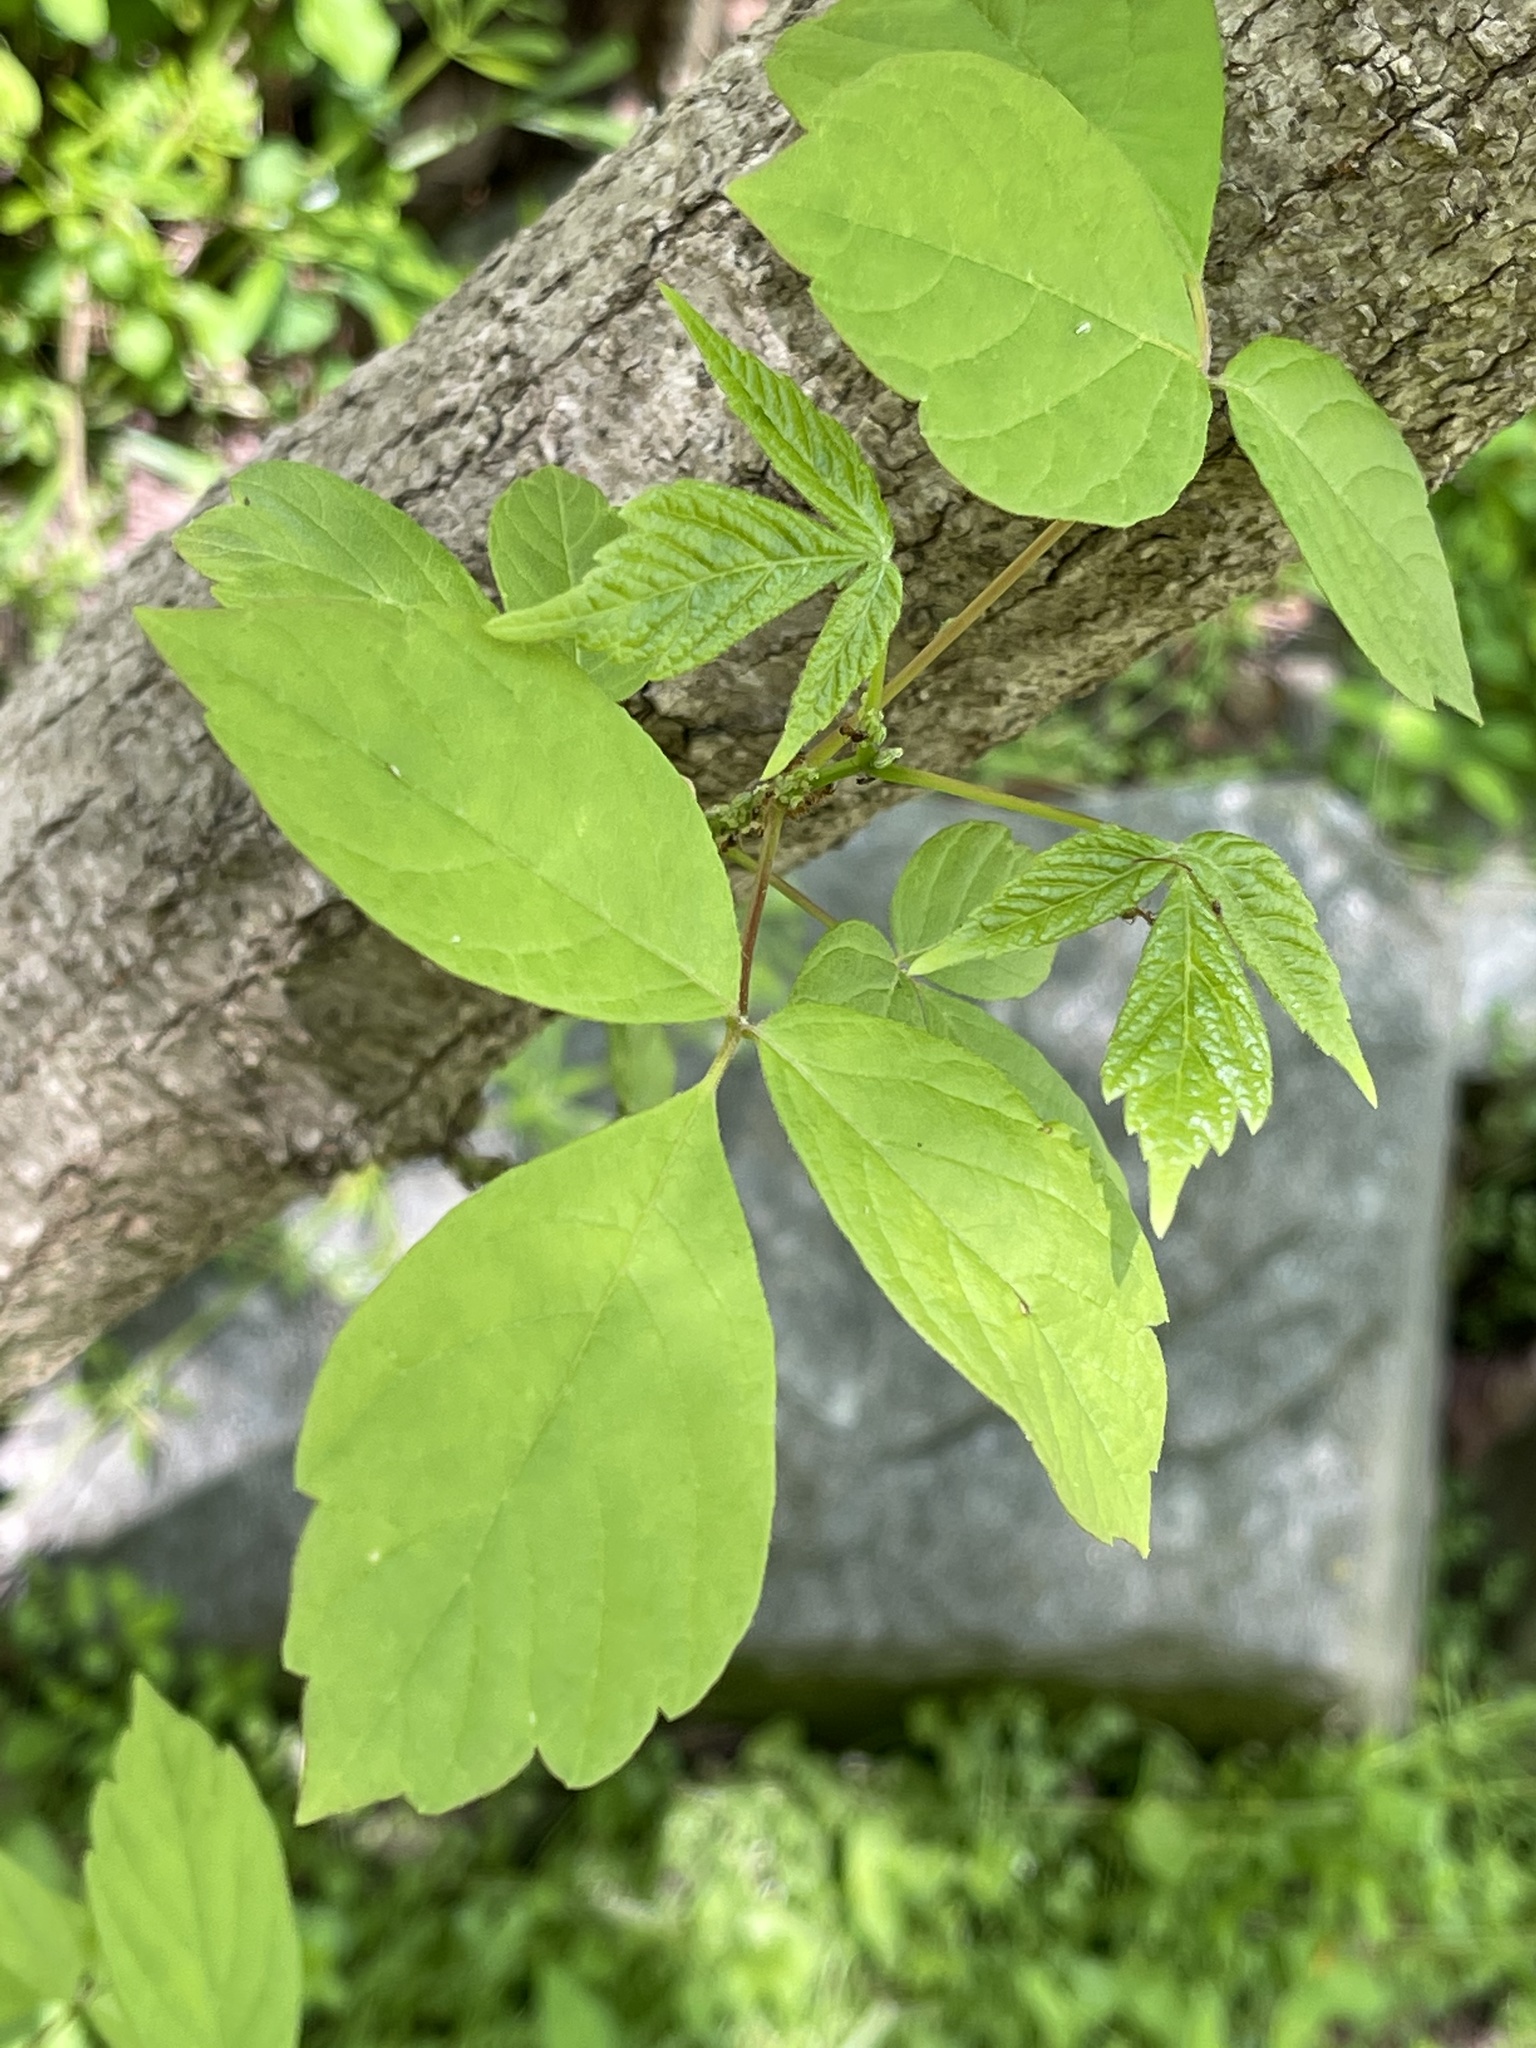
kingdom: Plantae
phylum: Tracheophyta
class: Magnoliopsida
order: Sapindales
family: Sapindaceae
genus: Acer
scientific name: Acer negundo
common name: Ashleaf maple
